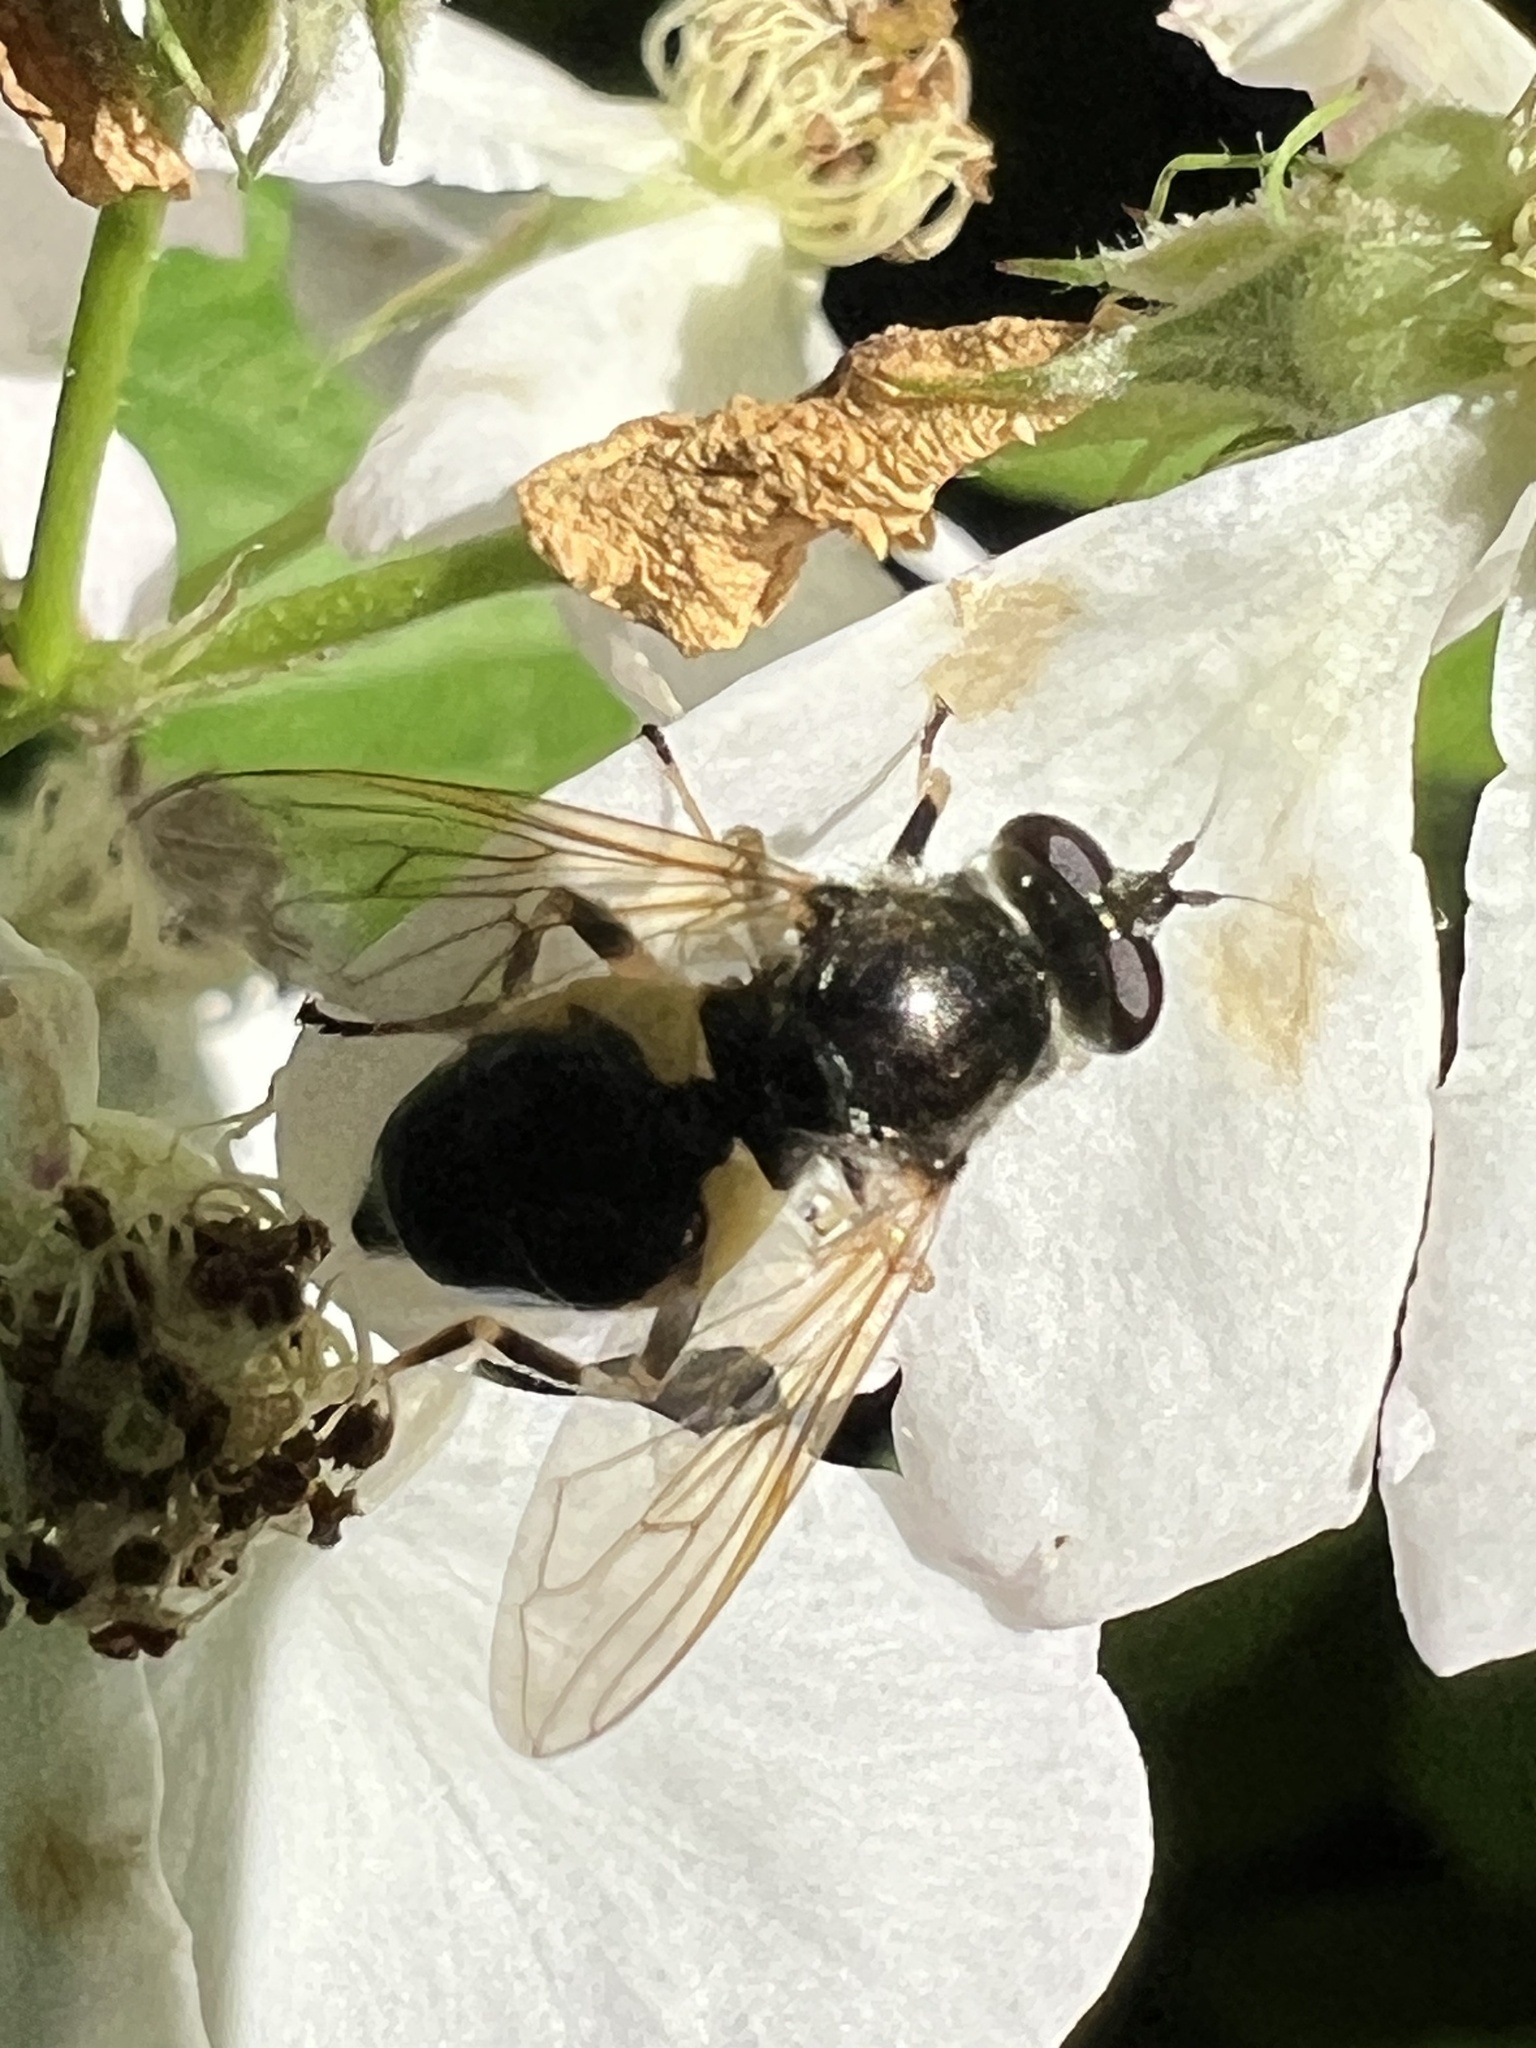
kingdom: Animalia
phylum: Arthropoda
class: Insecta
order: Diptera
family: Syrphidae
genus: Blera
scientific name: Blera badia
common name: Common wood fly
